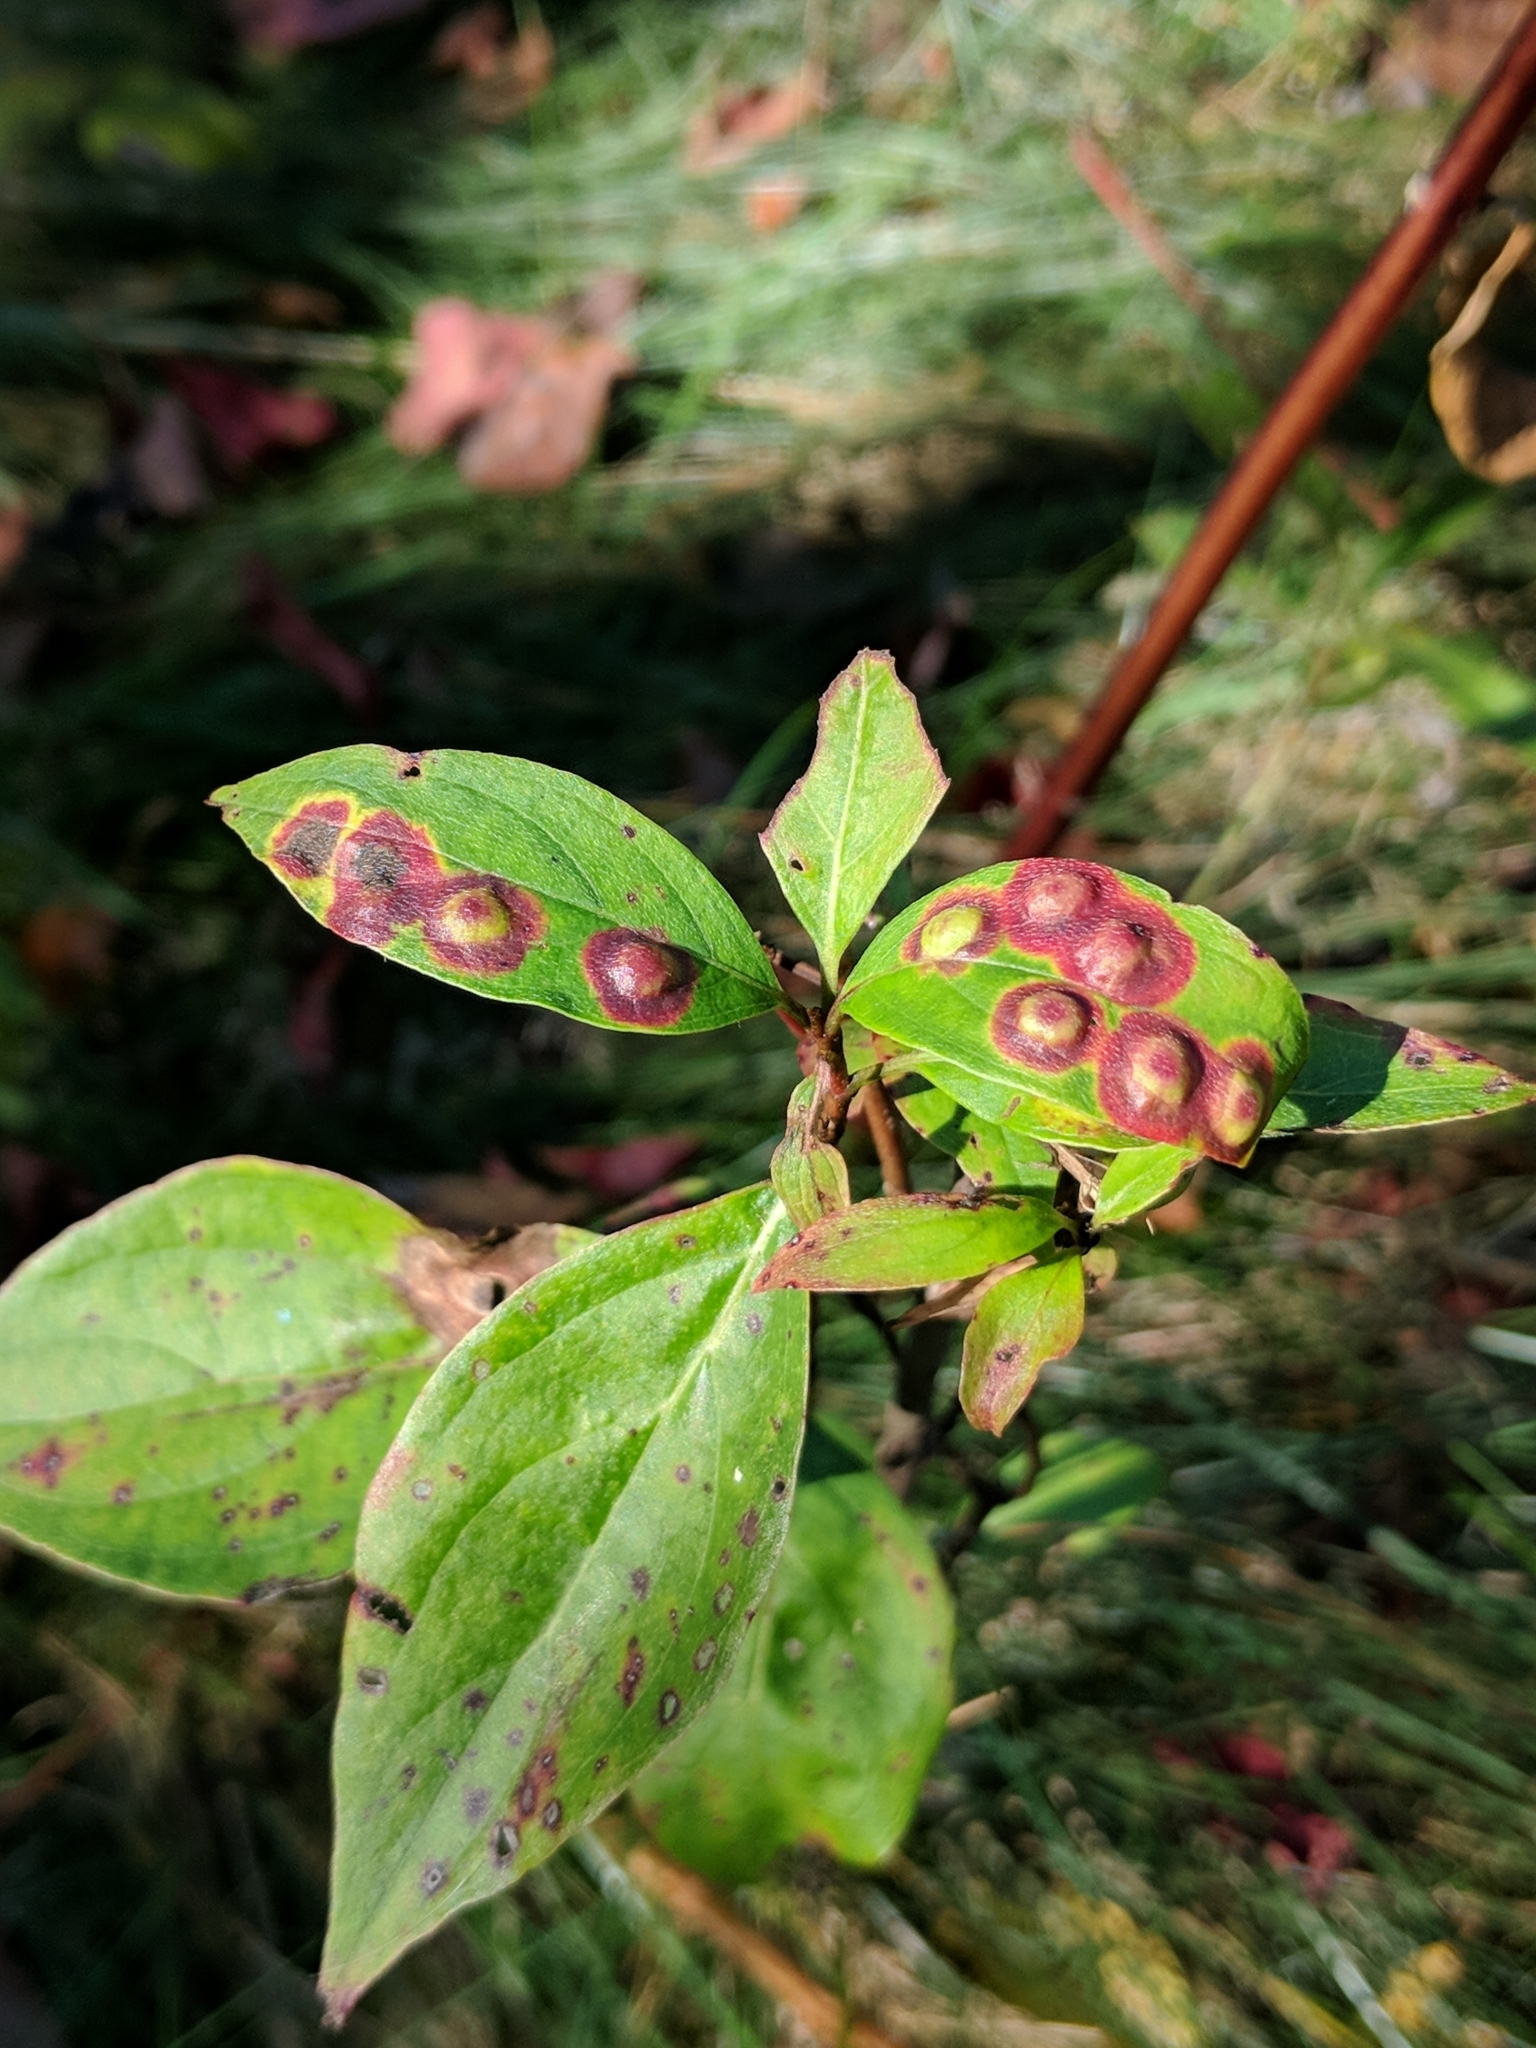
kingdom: Animalia
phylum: Arthropoda
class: Insecta
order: Diptera
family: Cecidomyiidae
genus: Parallelodiplosis
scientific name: Parallelodiplosis subtruncata
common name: Dogwood eyespot gall midge
